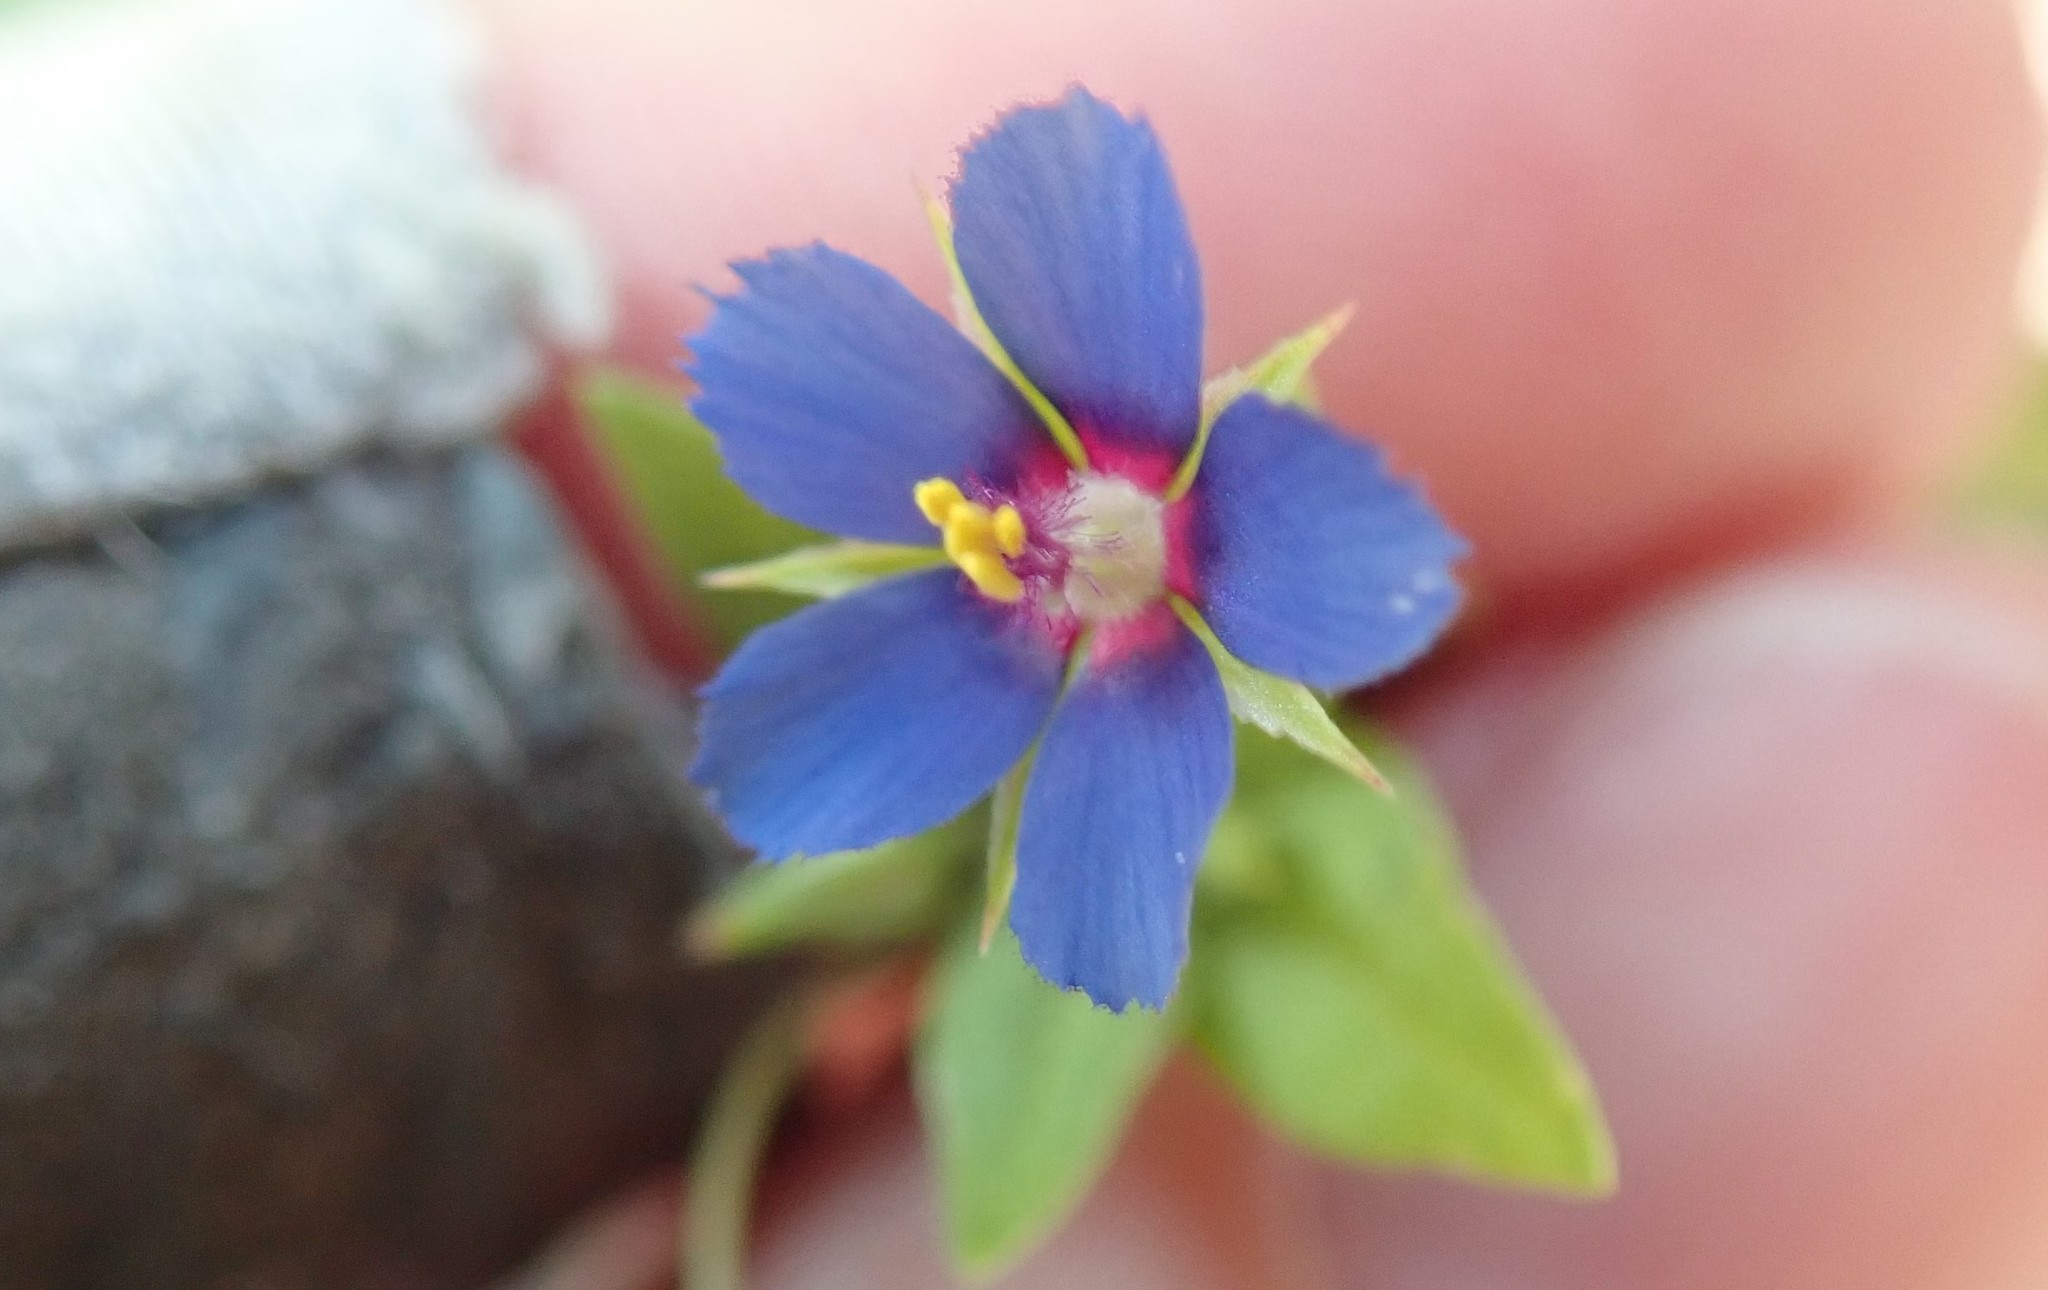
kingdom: Plantae
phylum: Tracheophyta
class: Magnoliopsida
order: Ericales
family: Primulaceae
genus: Lysimachia
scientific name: Lysimachia loeflingii
